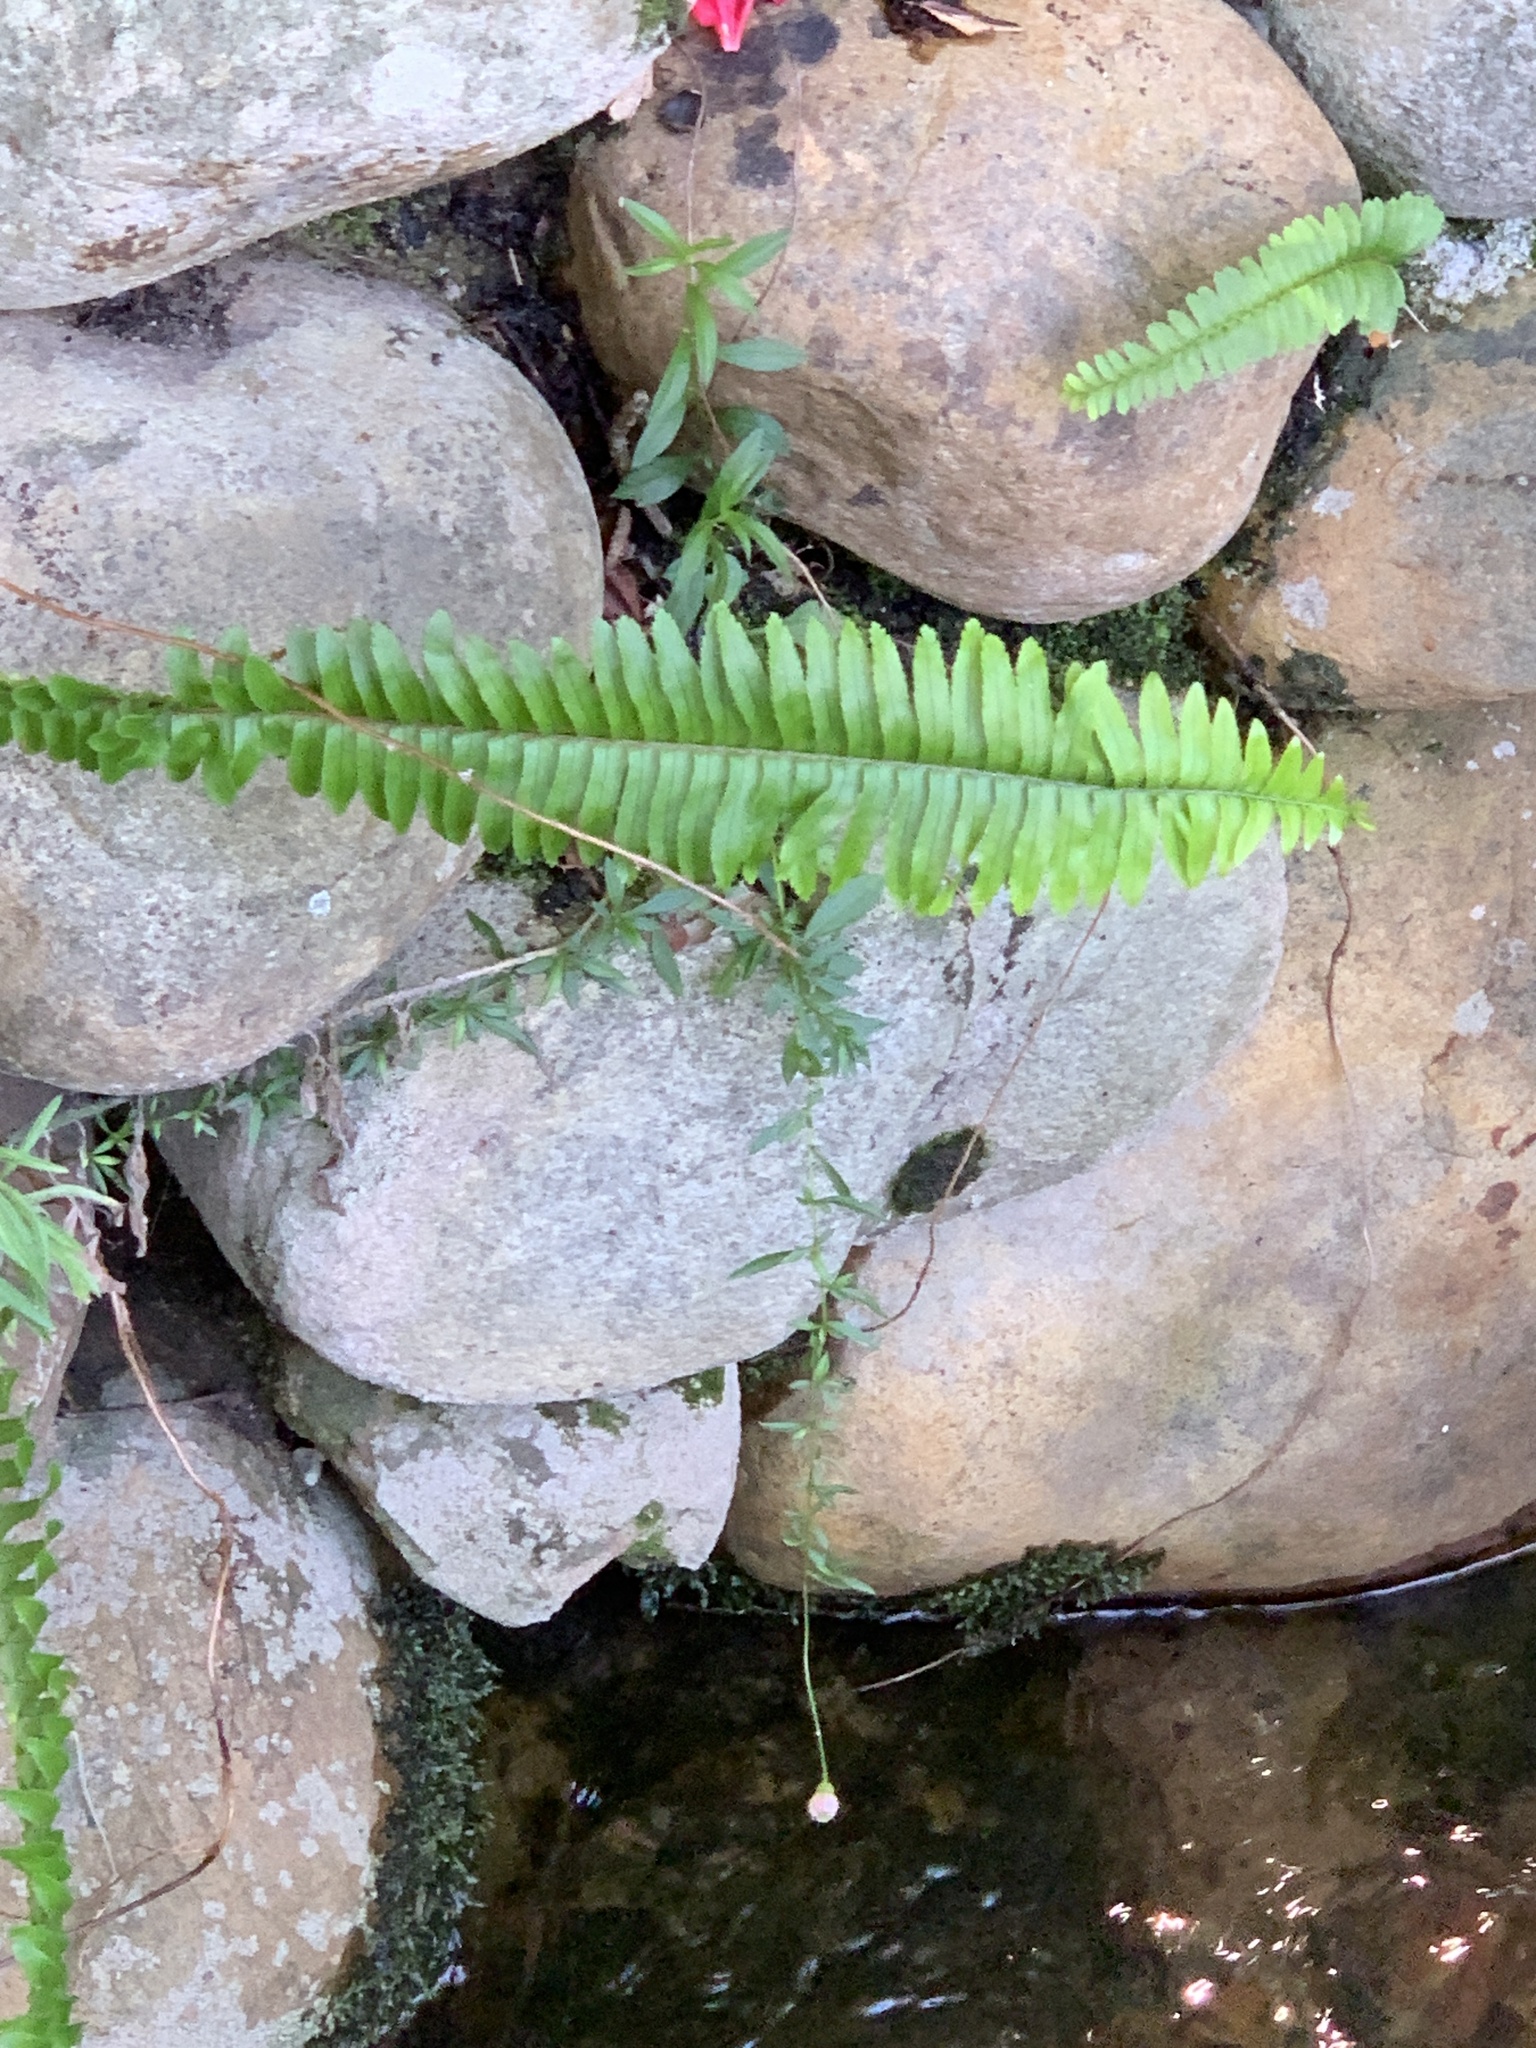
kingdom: Plantae
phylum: Tracheophyta
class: Polypodiopsida
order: Polypodiales
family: Nephrolepidaceae
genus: Nephrolepis
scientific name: Nephrolepis cordifolia
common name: Narrow swordfern
